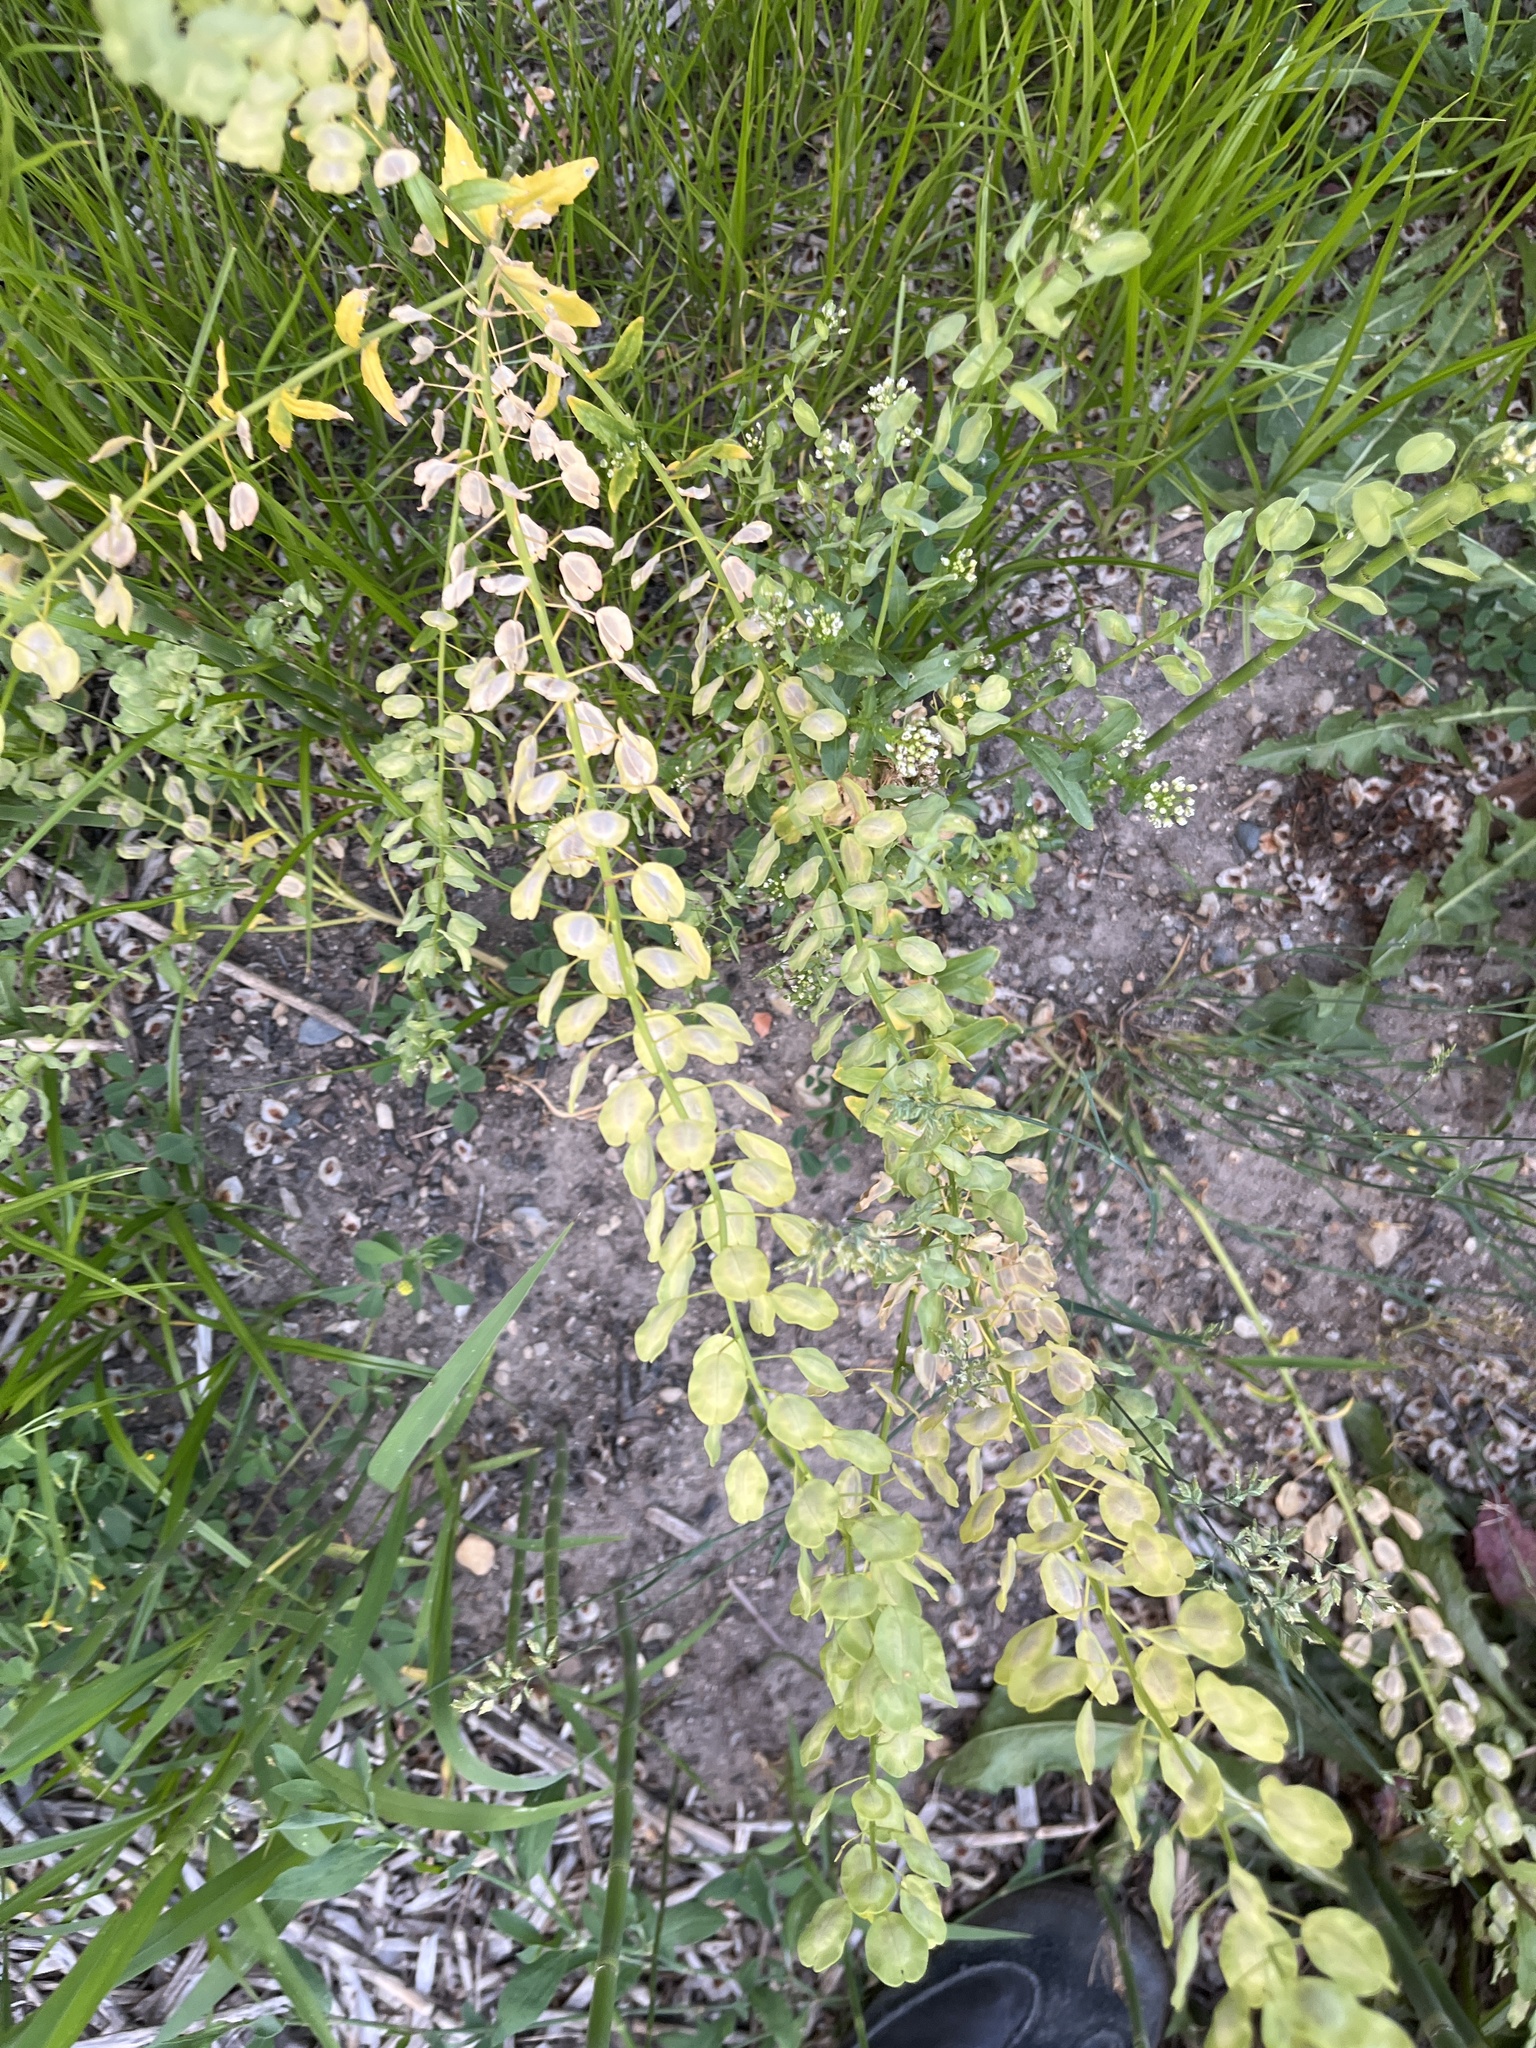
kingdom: Plantae
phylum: Tracheophyta
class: Magnoliopsida
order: Brassicales
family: Brassicaceae
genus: Thlaspi
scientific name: Thlaspi arvense
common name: Field pennycress
